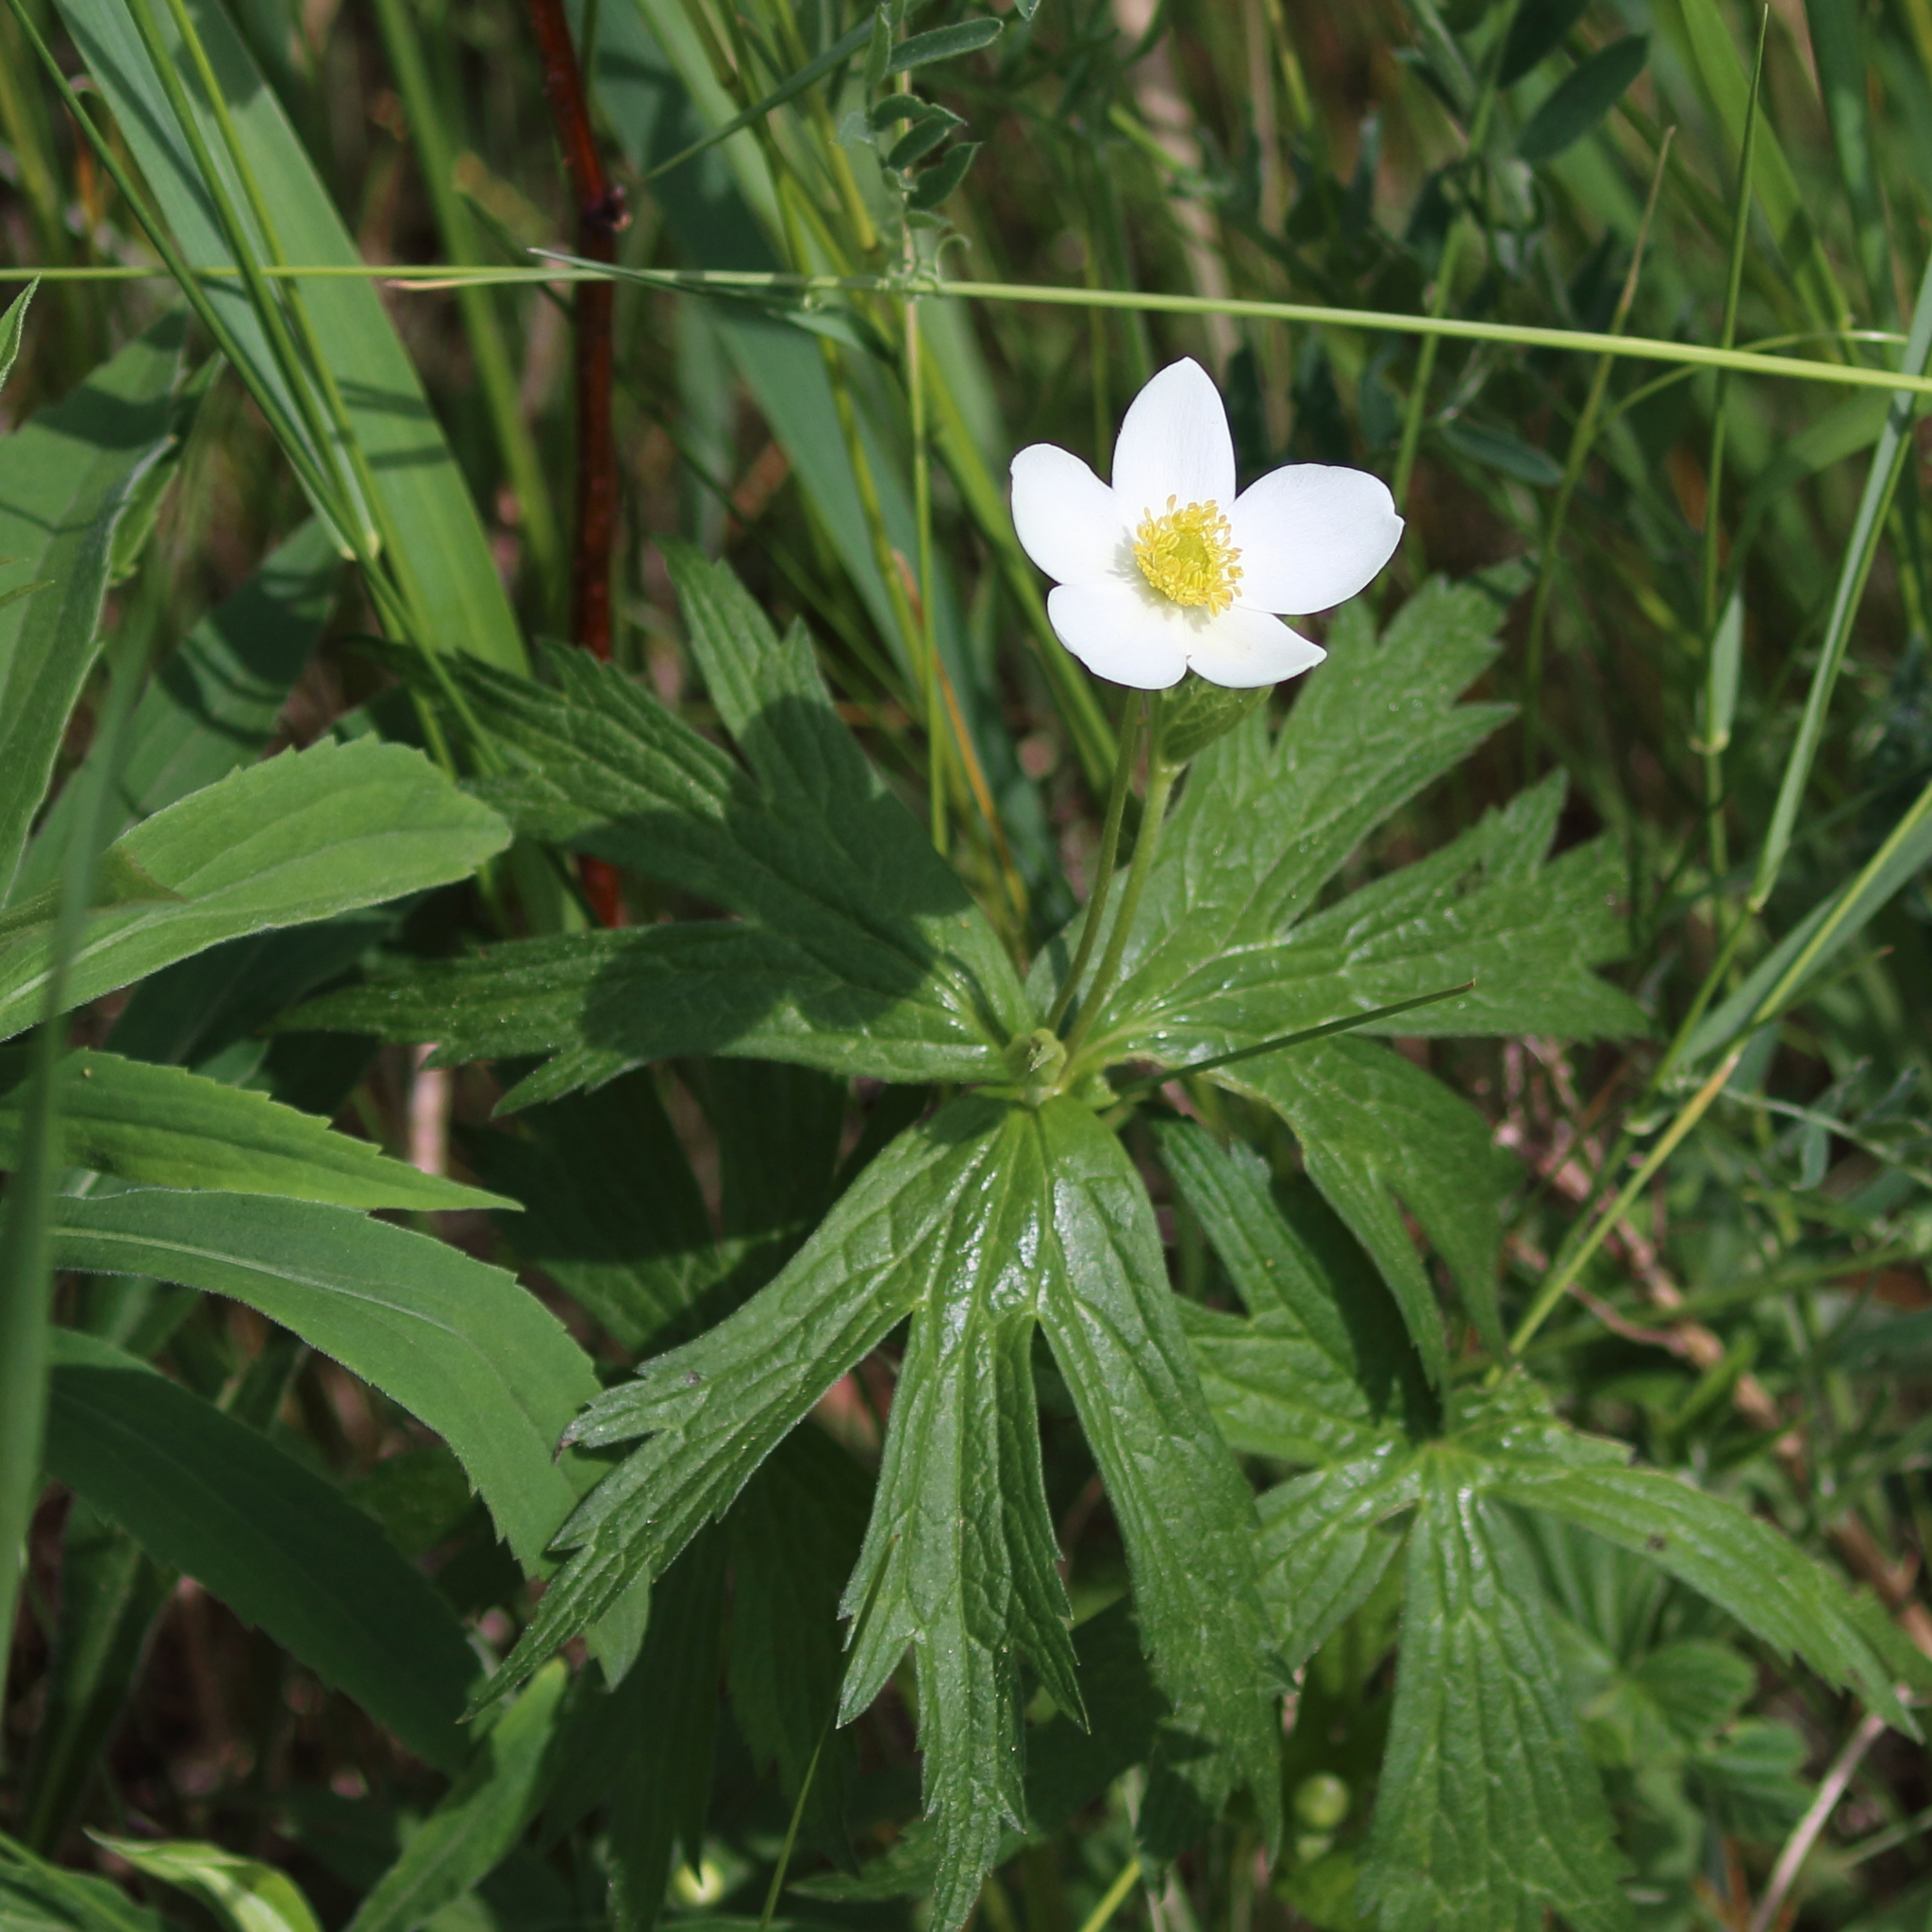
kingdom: Plantae
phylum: Tracheophyta
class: Magnoliopsida
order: Ranunculales
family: Ranunculaceae
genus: Anemonastrum
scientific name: Anemonastrum canadense
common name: Canada anemone
